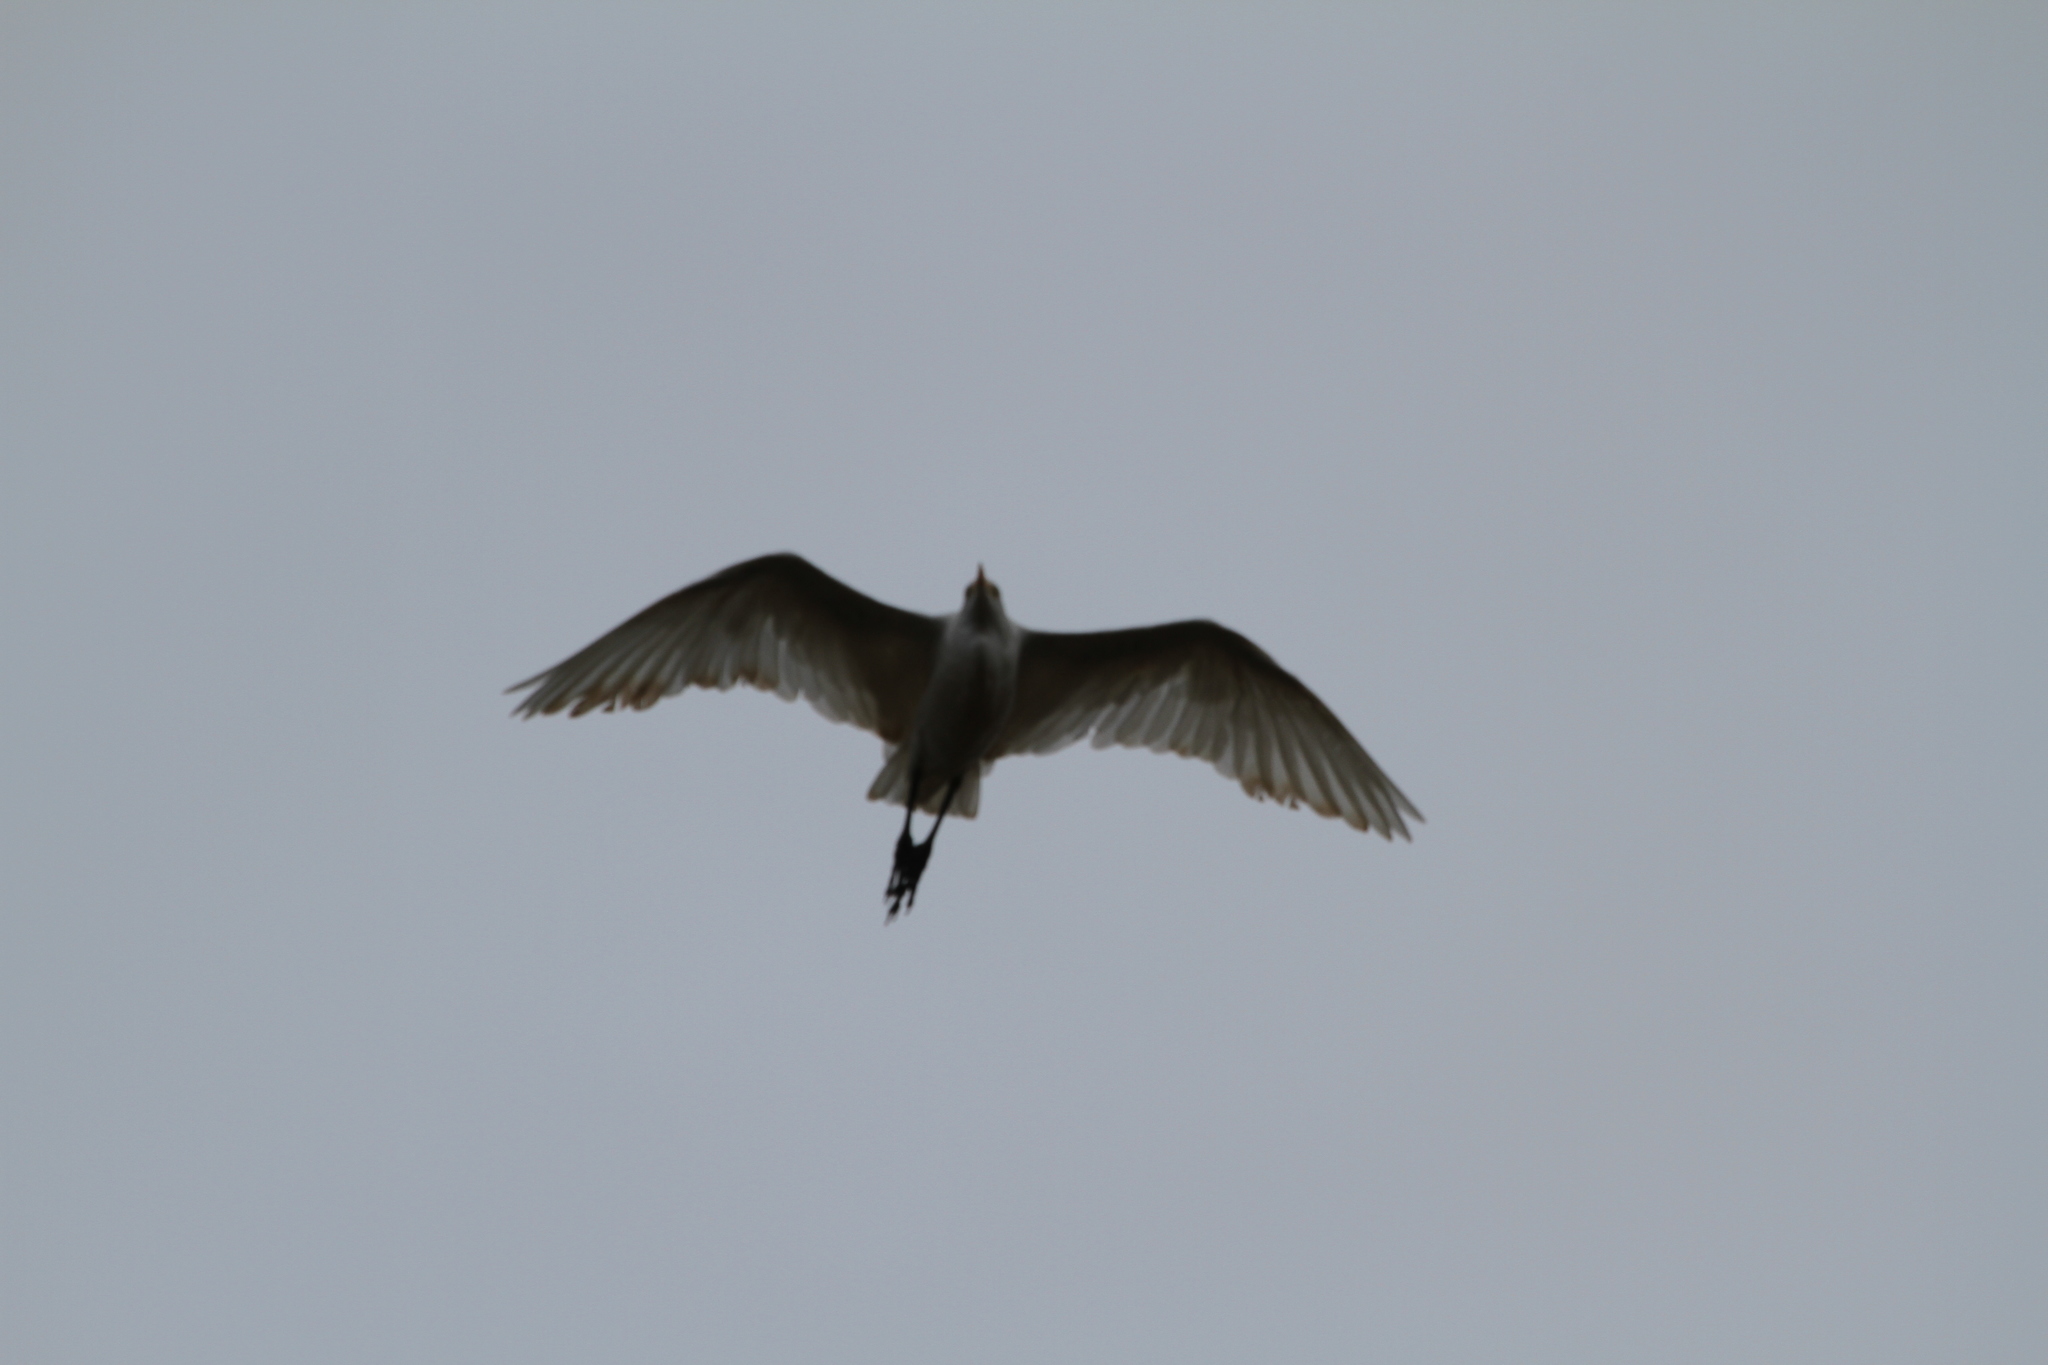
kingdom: Animalia
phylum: Chordata
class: Aves
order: Pelecaniformes
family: Ardeidae
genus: Bubulcus
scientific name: Bubulcus ibis
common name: Cattle egret
